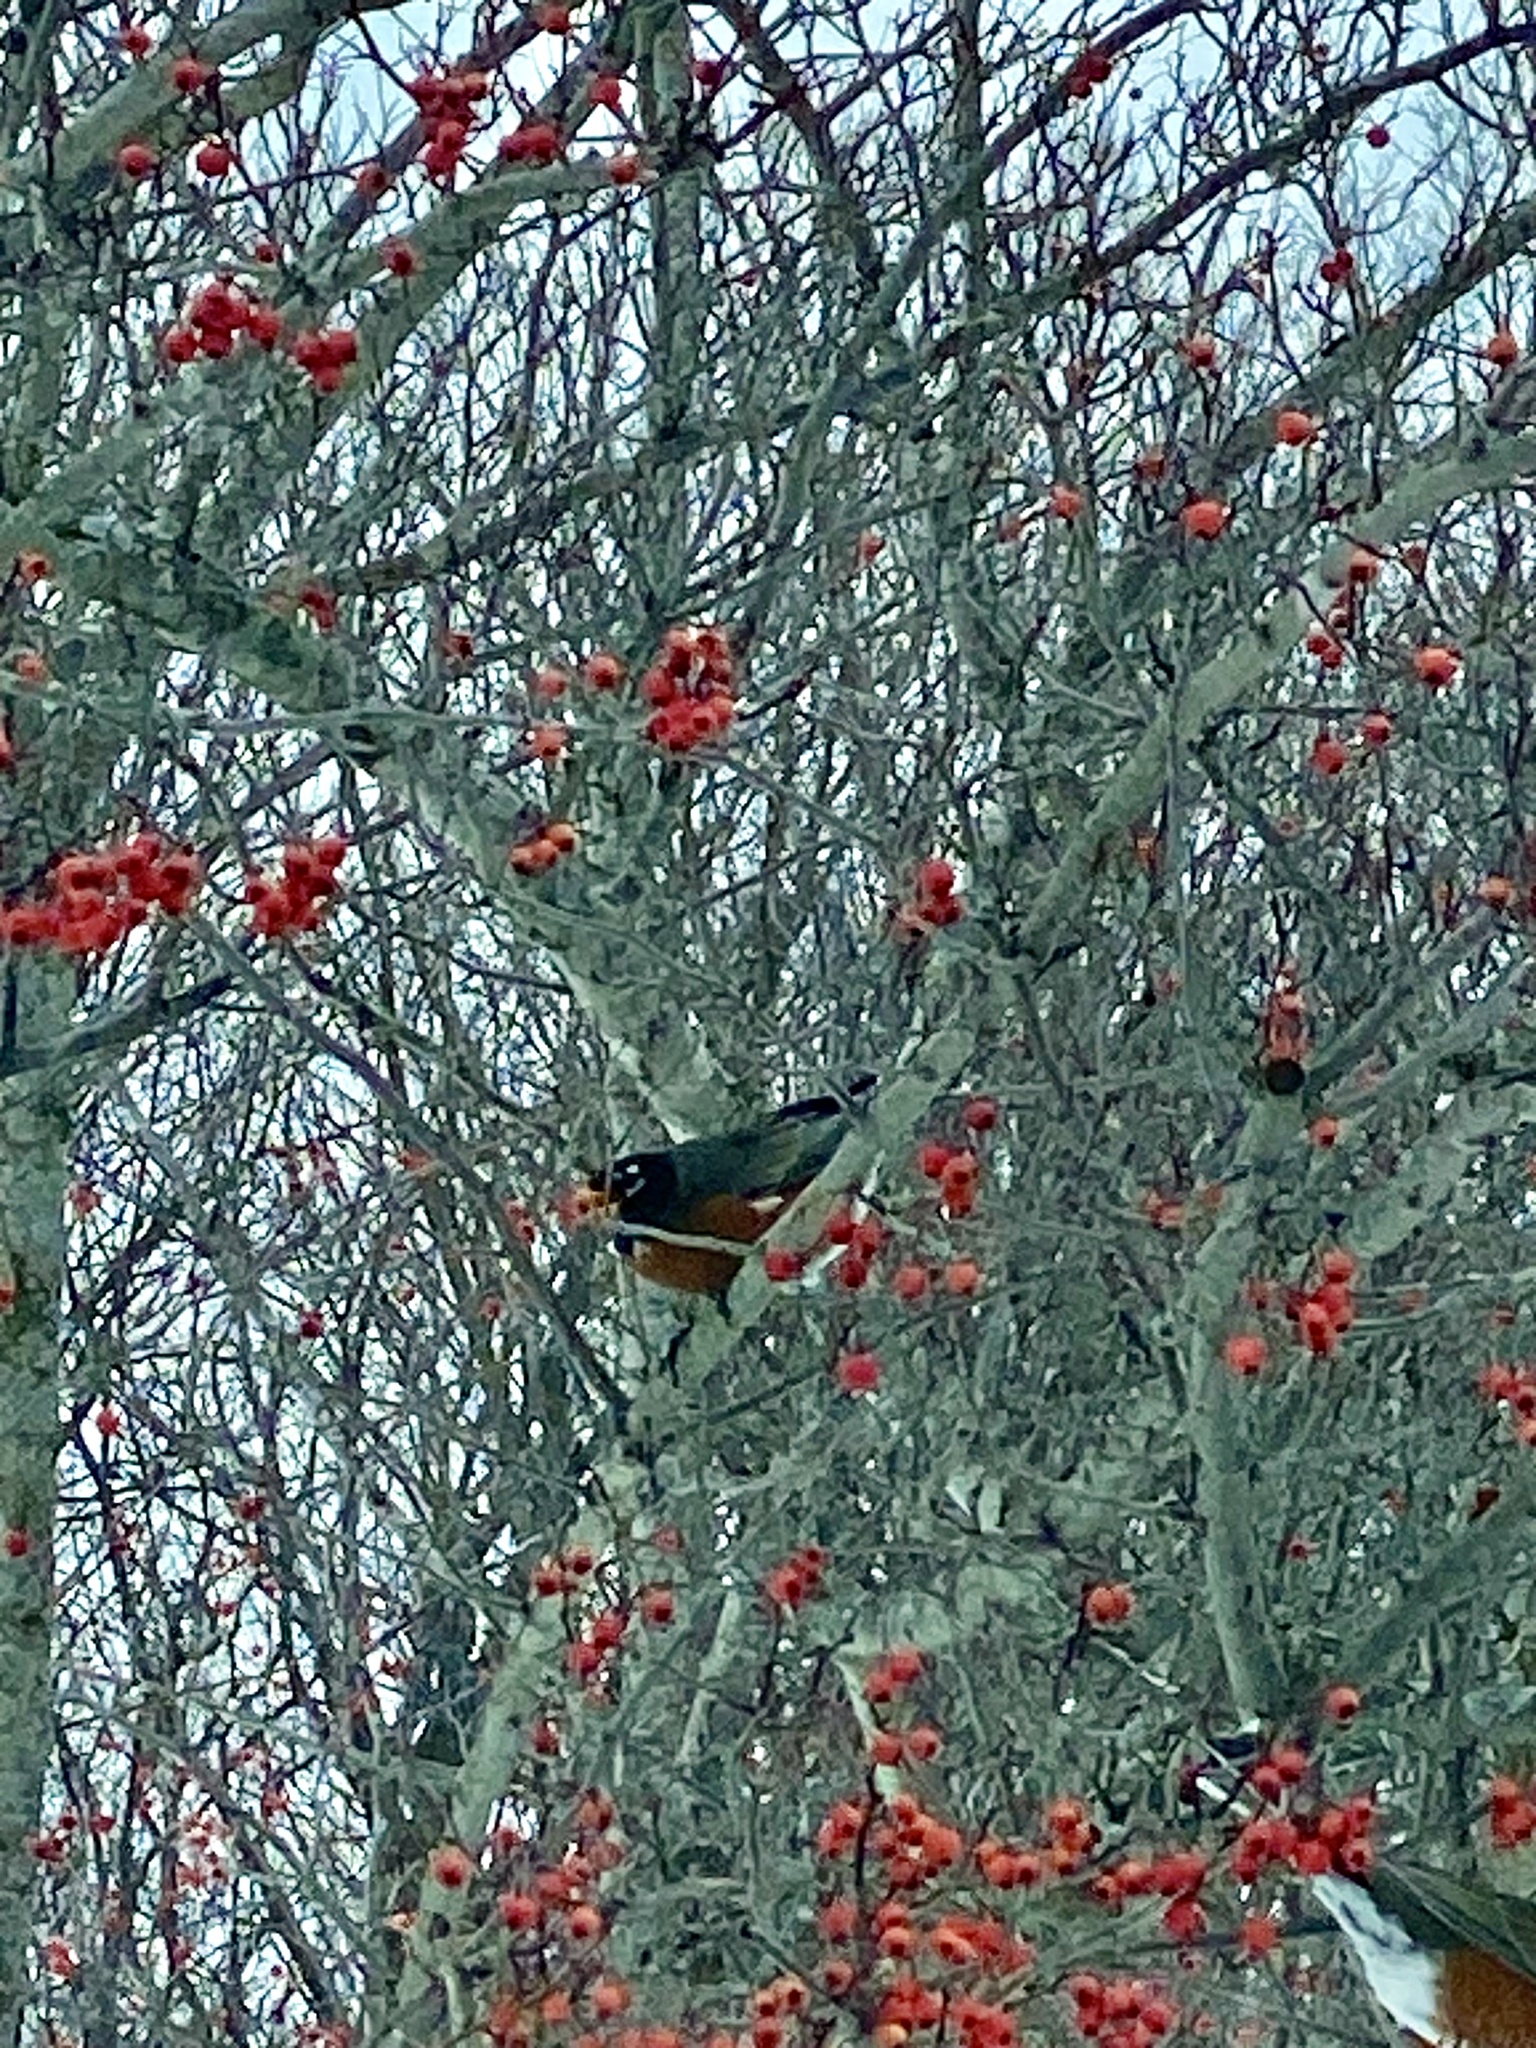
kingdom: Animalia
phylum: Chordata
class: Aves
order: Passeriformes
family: Turdidae
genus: Turdus
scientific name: Turdus migratorius
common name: American robin
